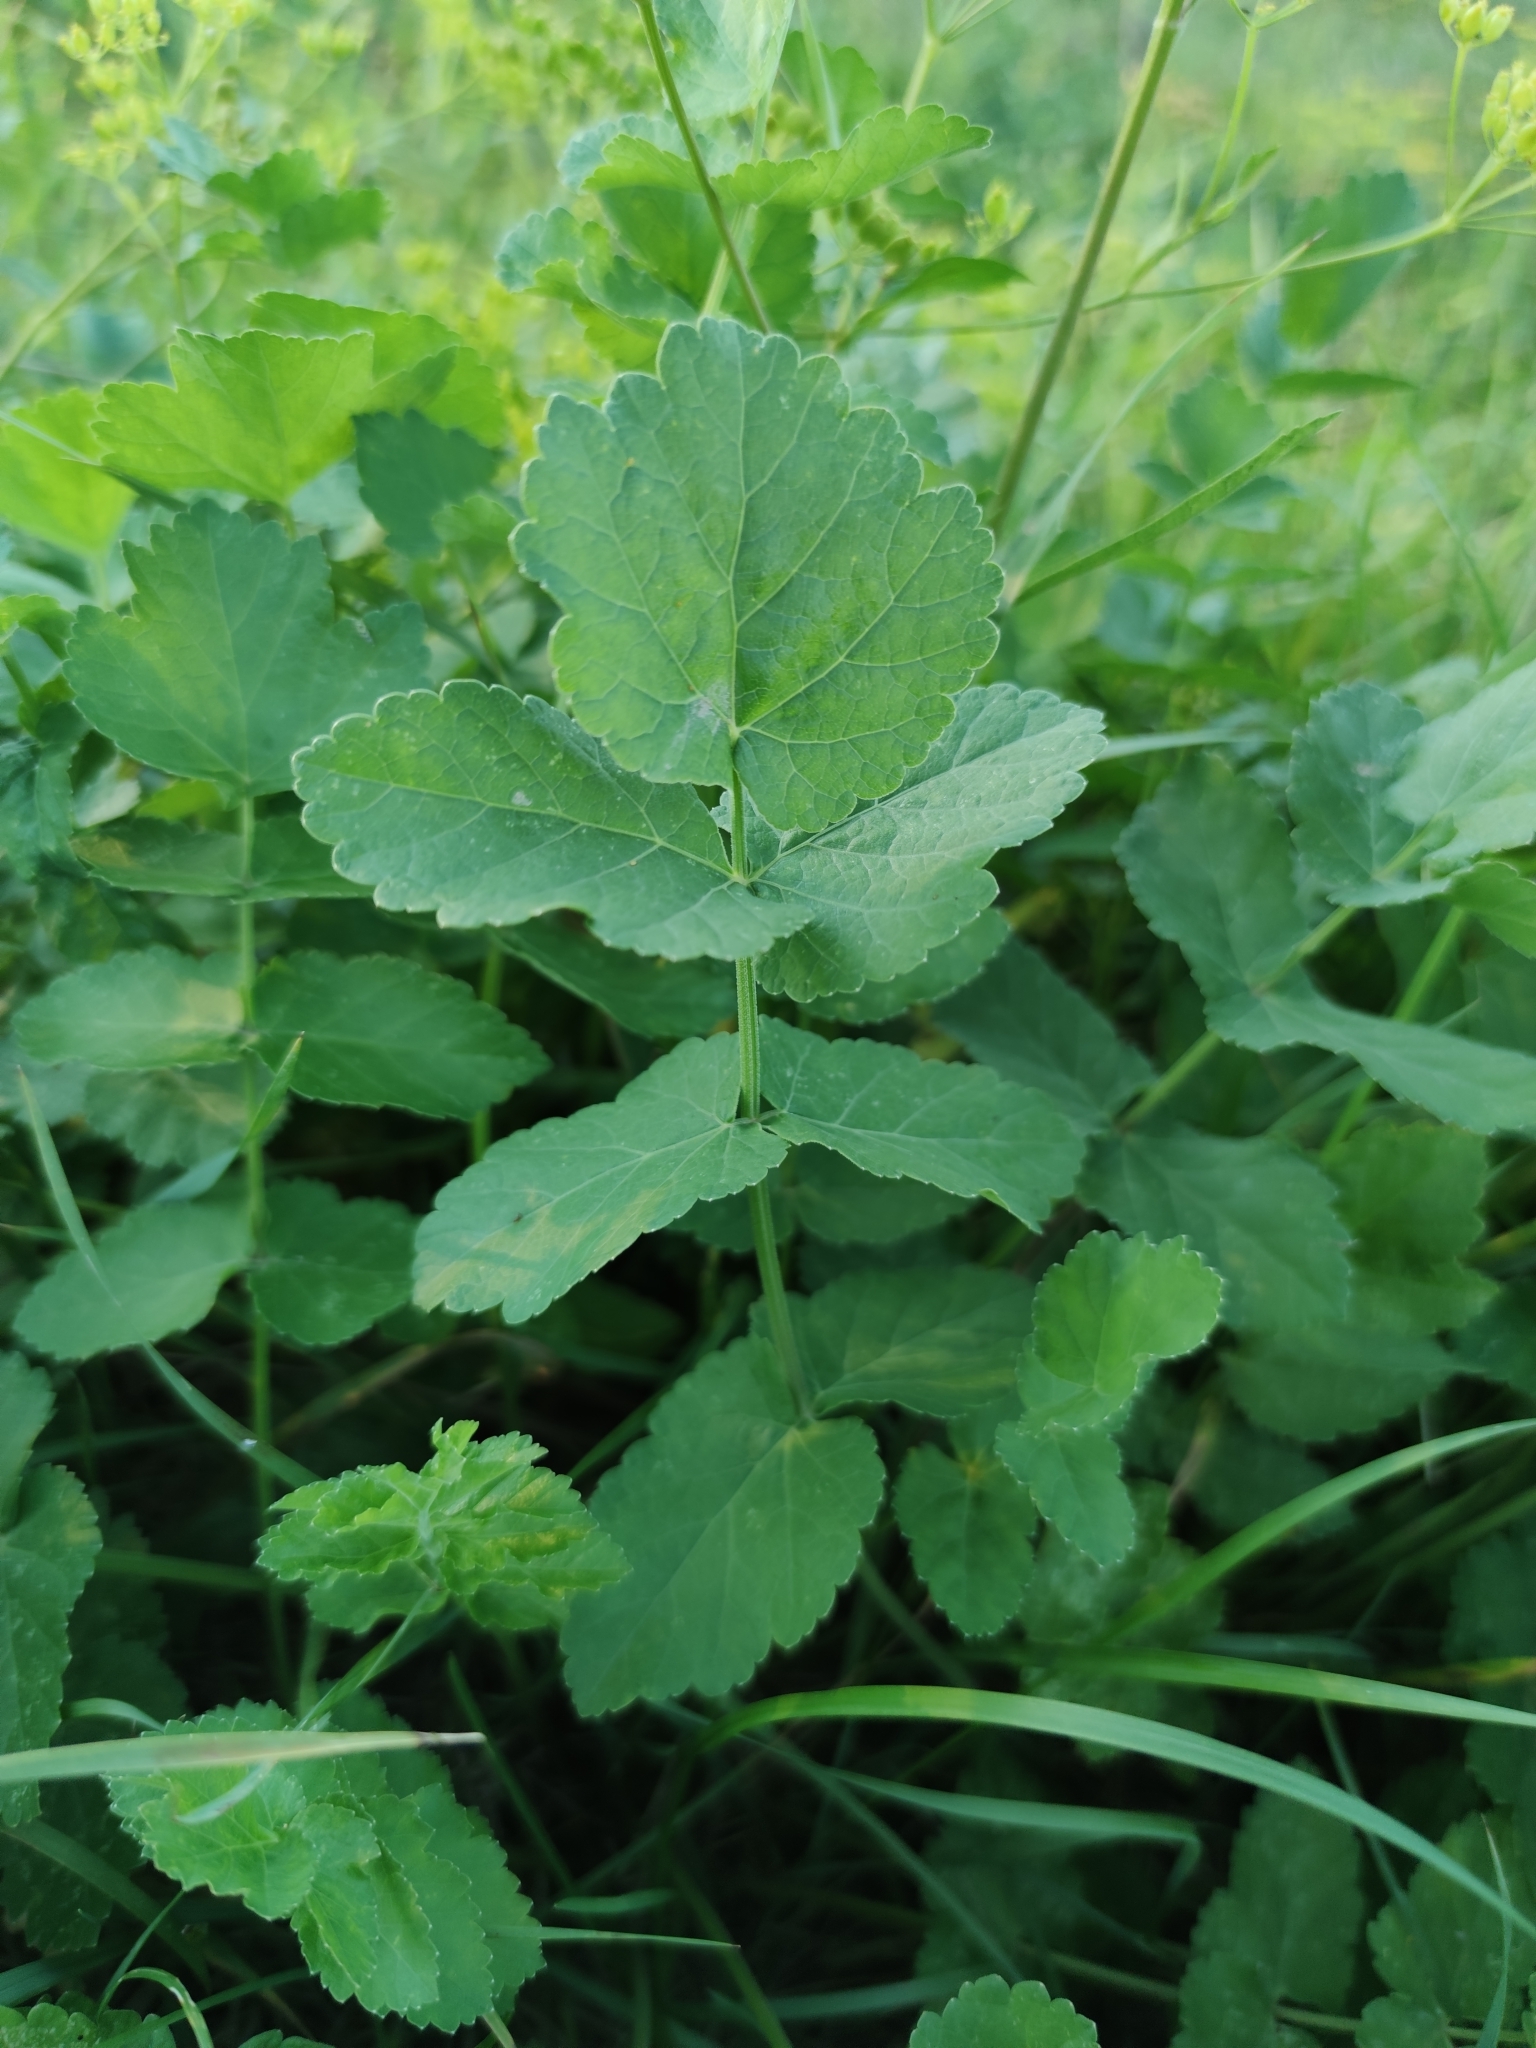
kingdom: Plantae
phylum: Tracheophyta
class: Magnoliopsida
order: Apiales
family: Apiaceae
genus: Pastinaca
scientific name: Pastinaca sativa
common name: Wild parsnip
